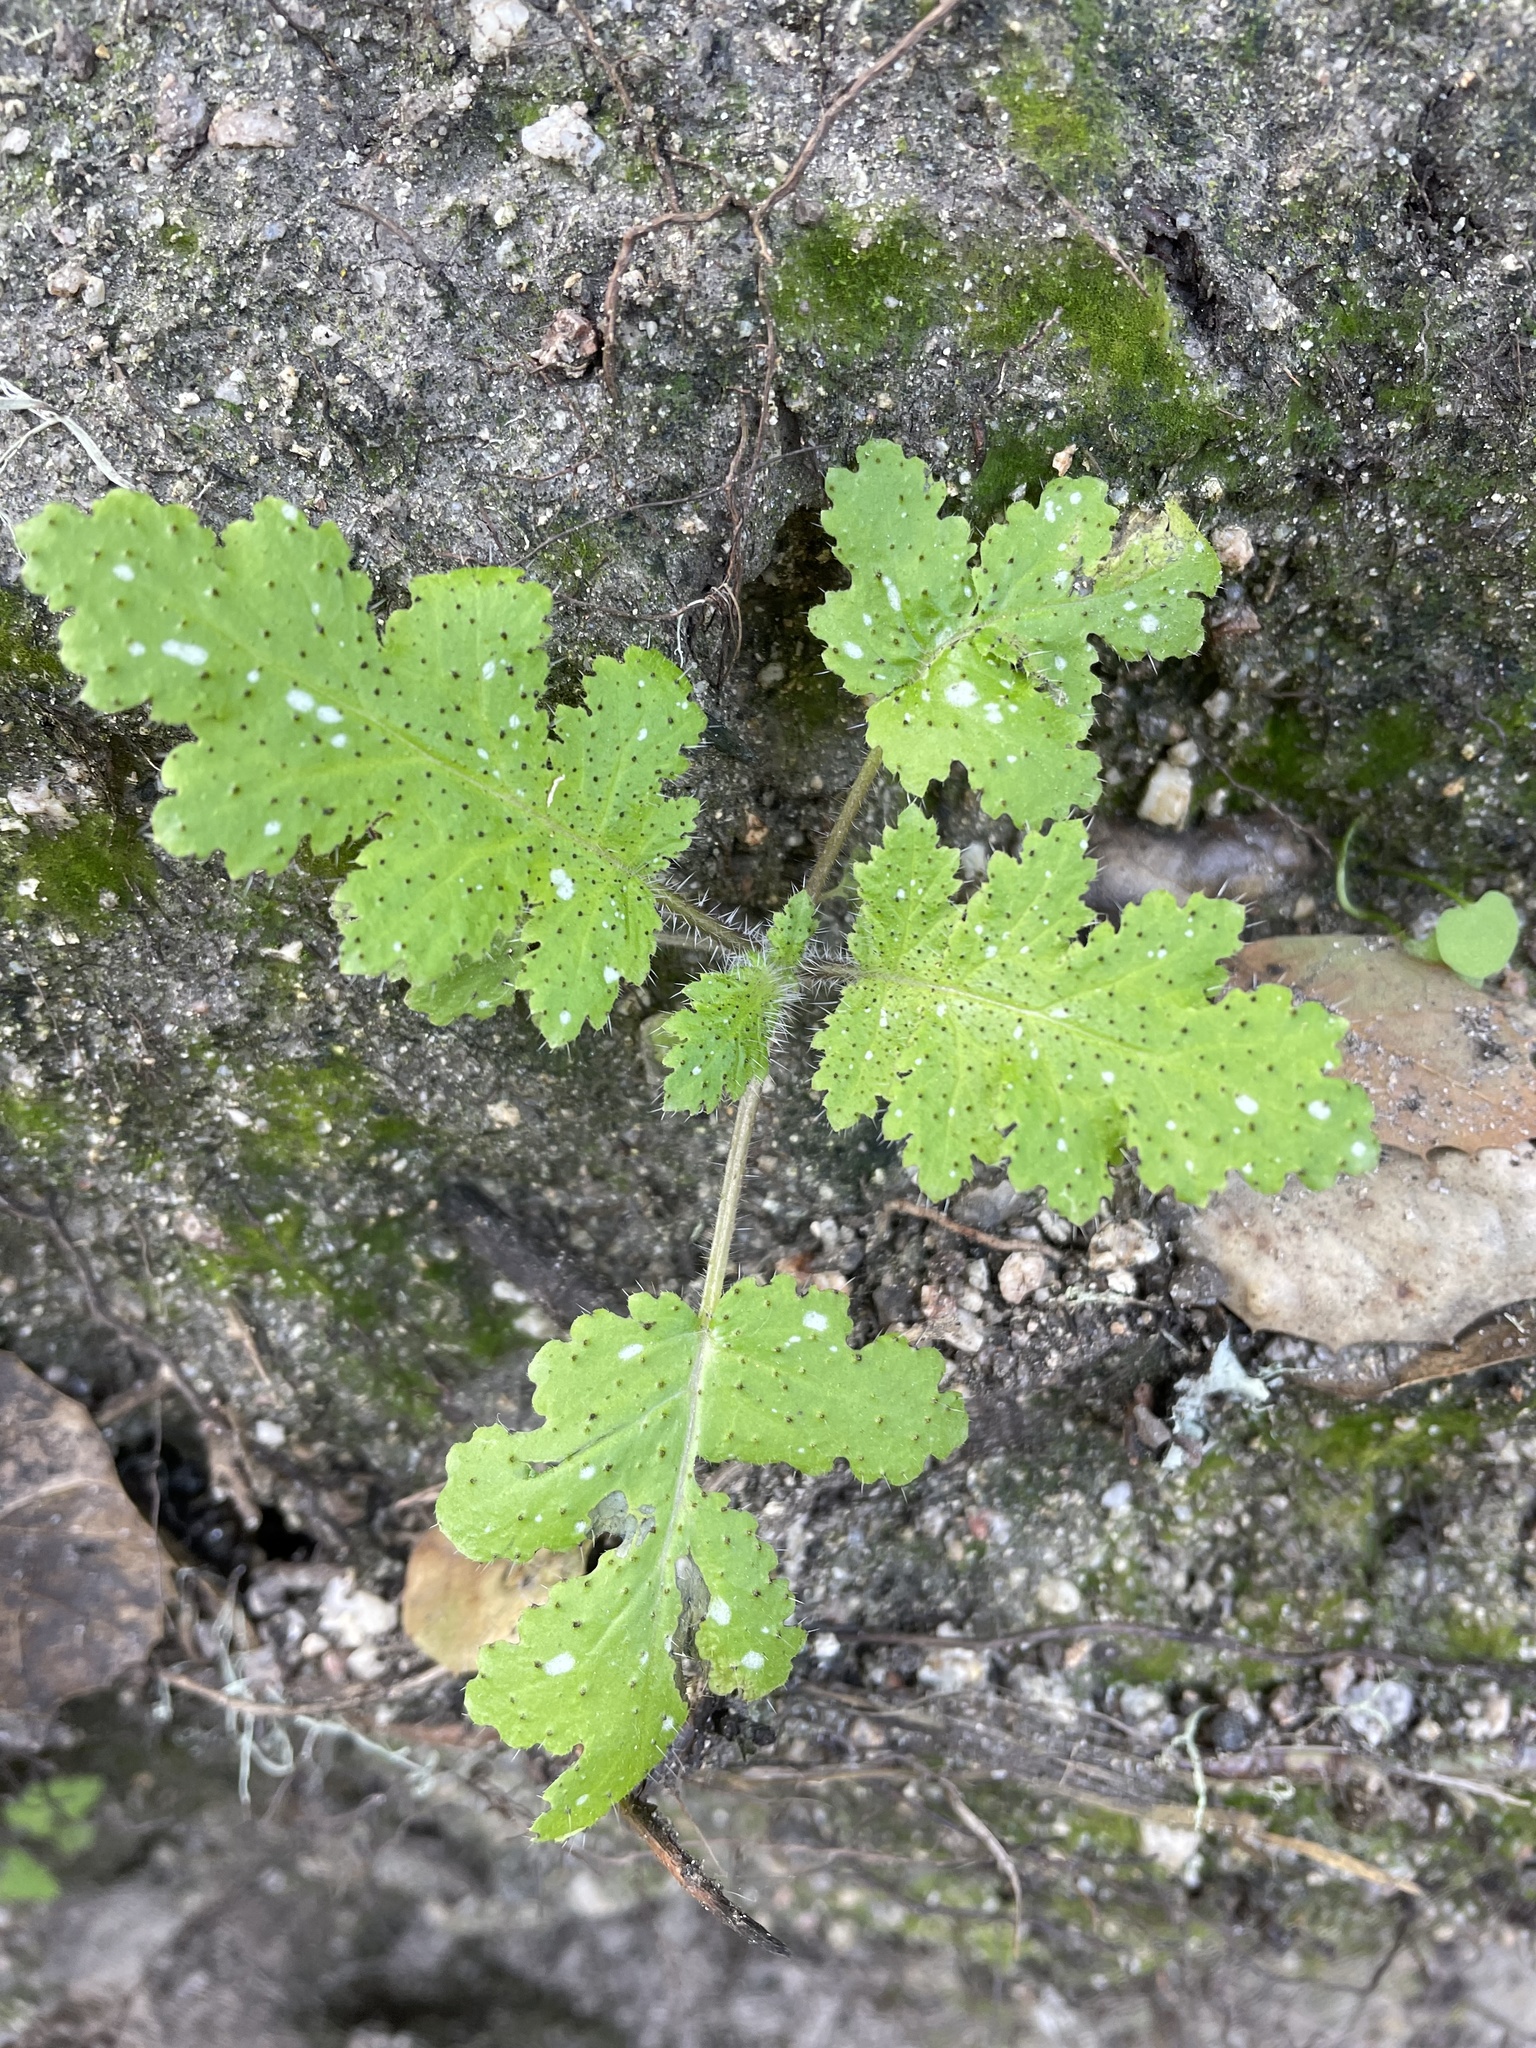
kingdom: Plantae
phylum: Tracheophyta
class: Magnoliopsida
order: Boraginales
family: Hydrophyllaceae
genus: Phacelia
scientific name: Phacelia malvifolia
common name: Mallow-leaf phacelia
